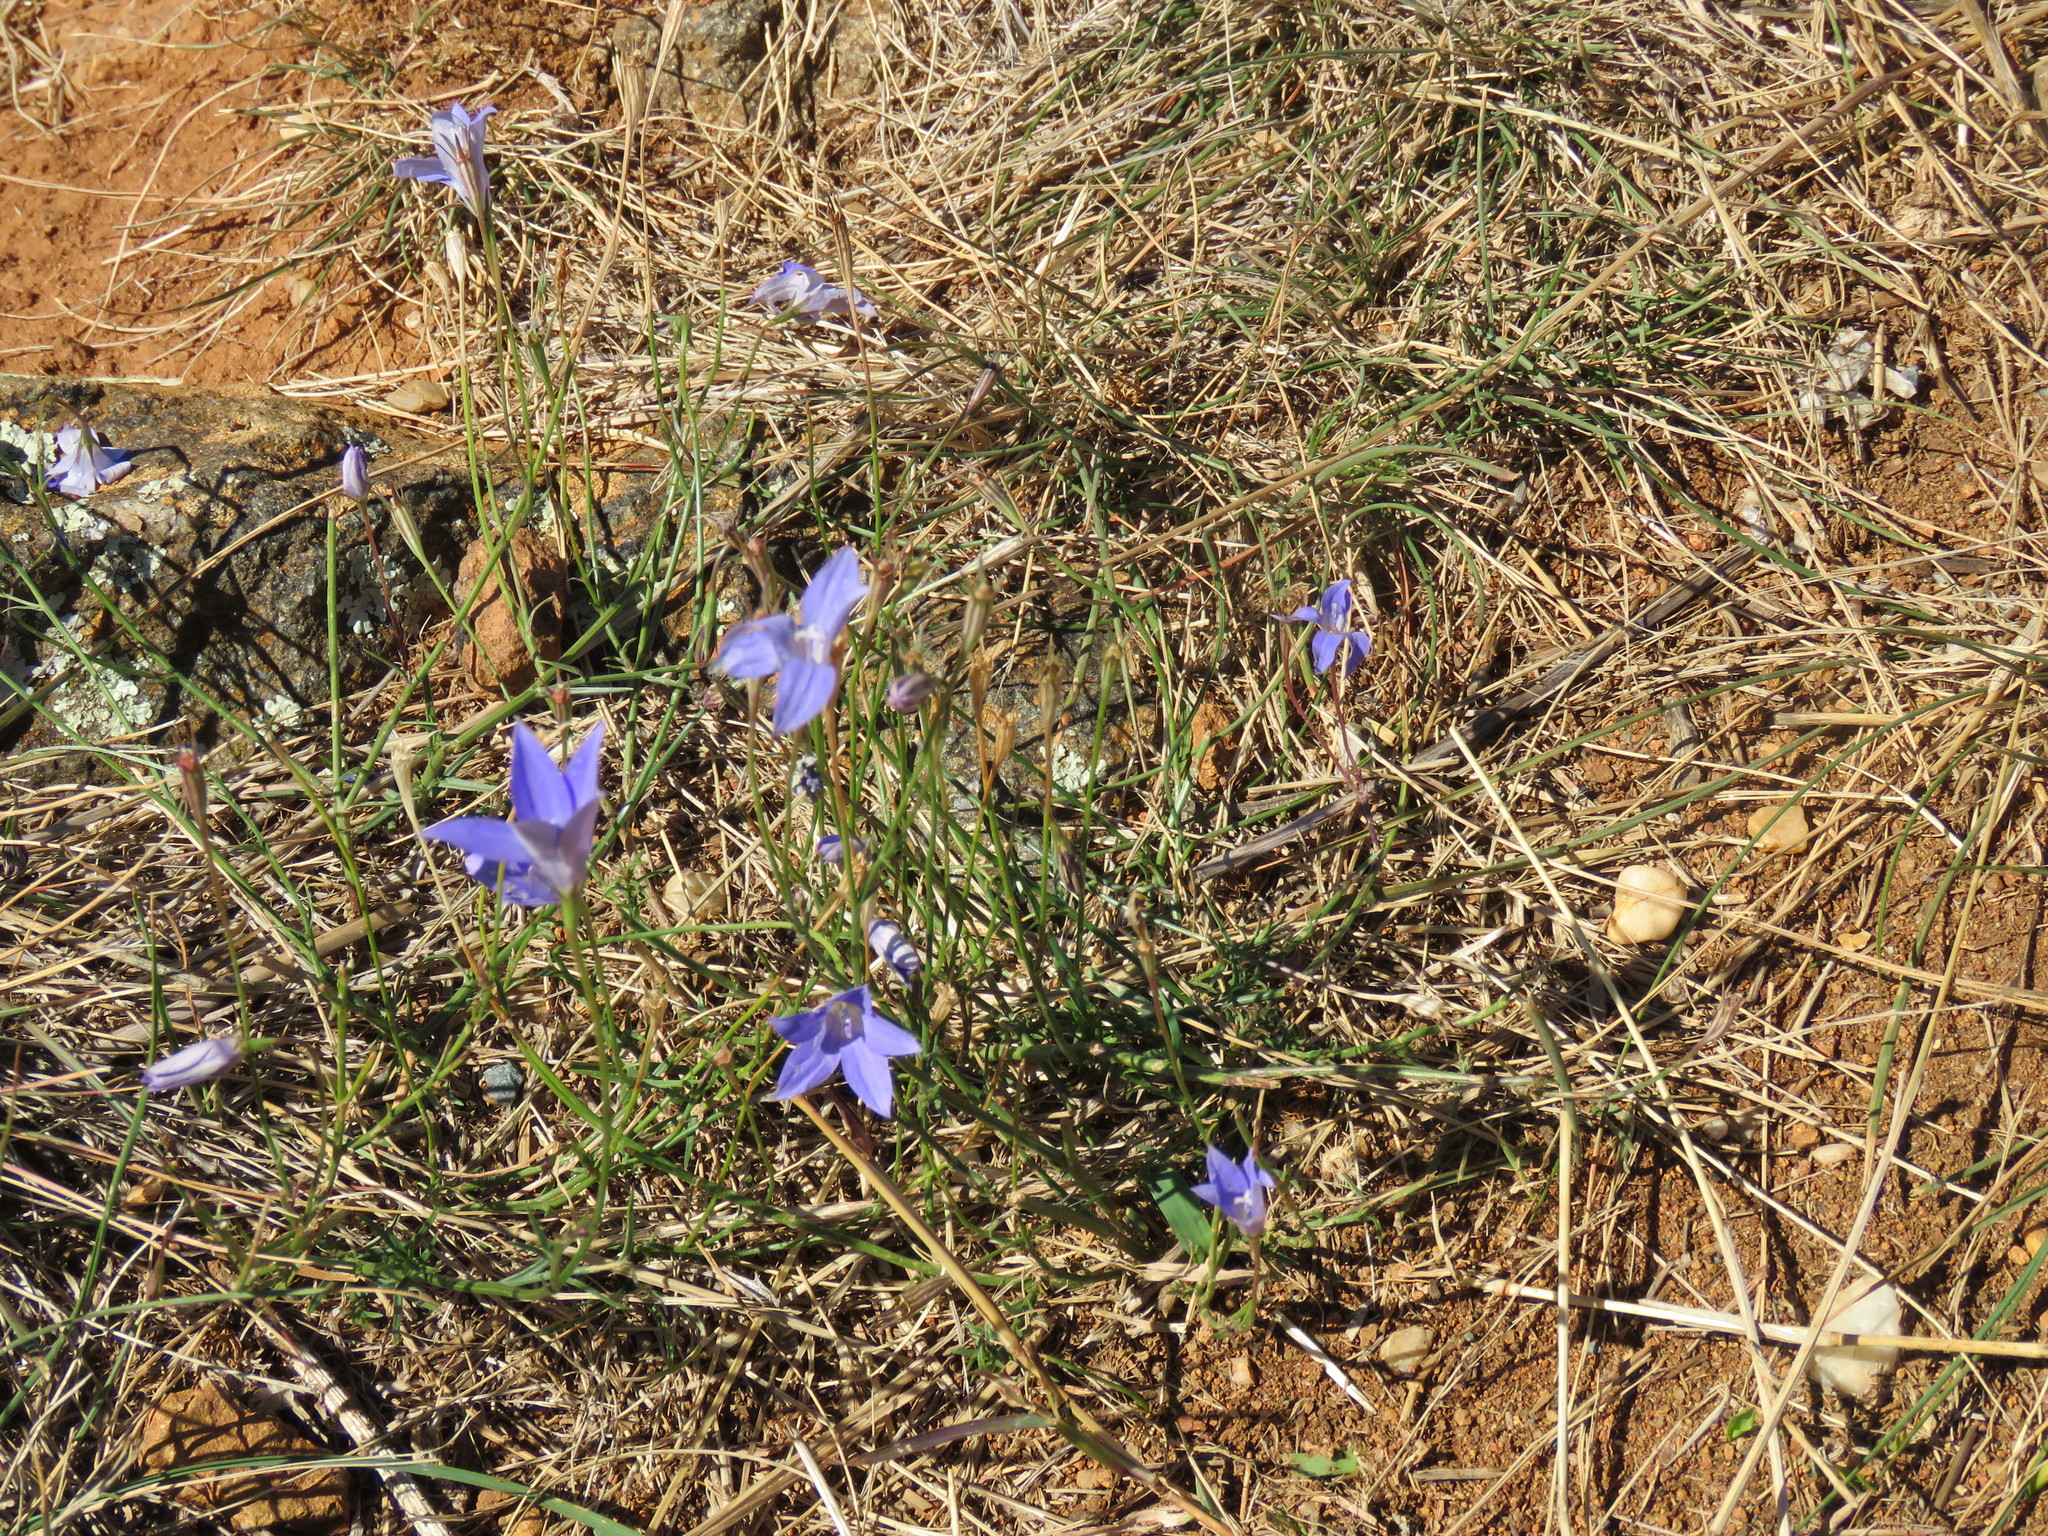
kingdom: Plantae
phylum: Tracheophyta
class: Magnoliopsida
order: Asterales
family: Campanulaceae
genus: Wahlenbergia
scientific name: Wahlenbergia capillaris
